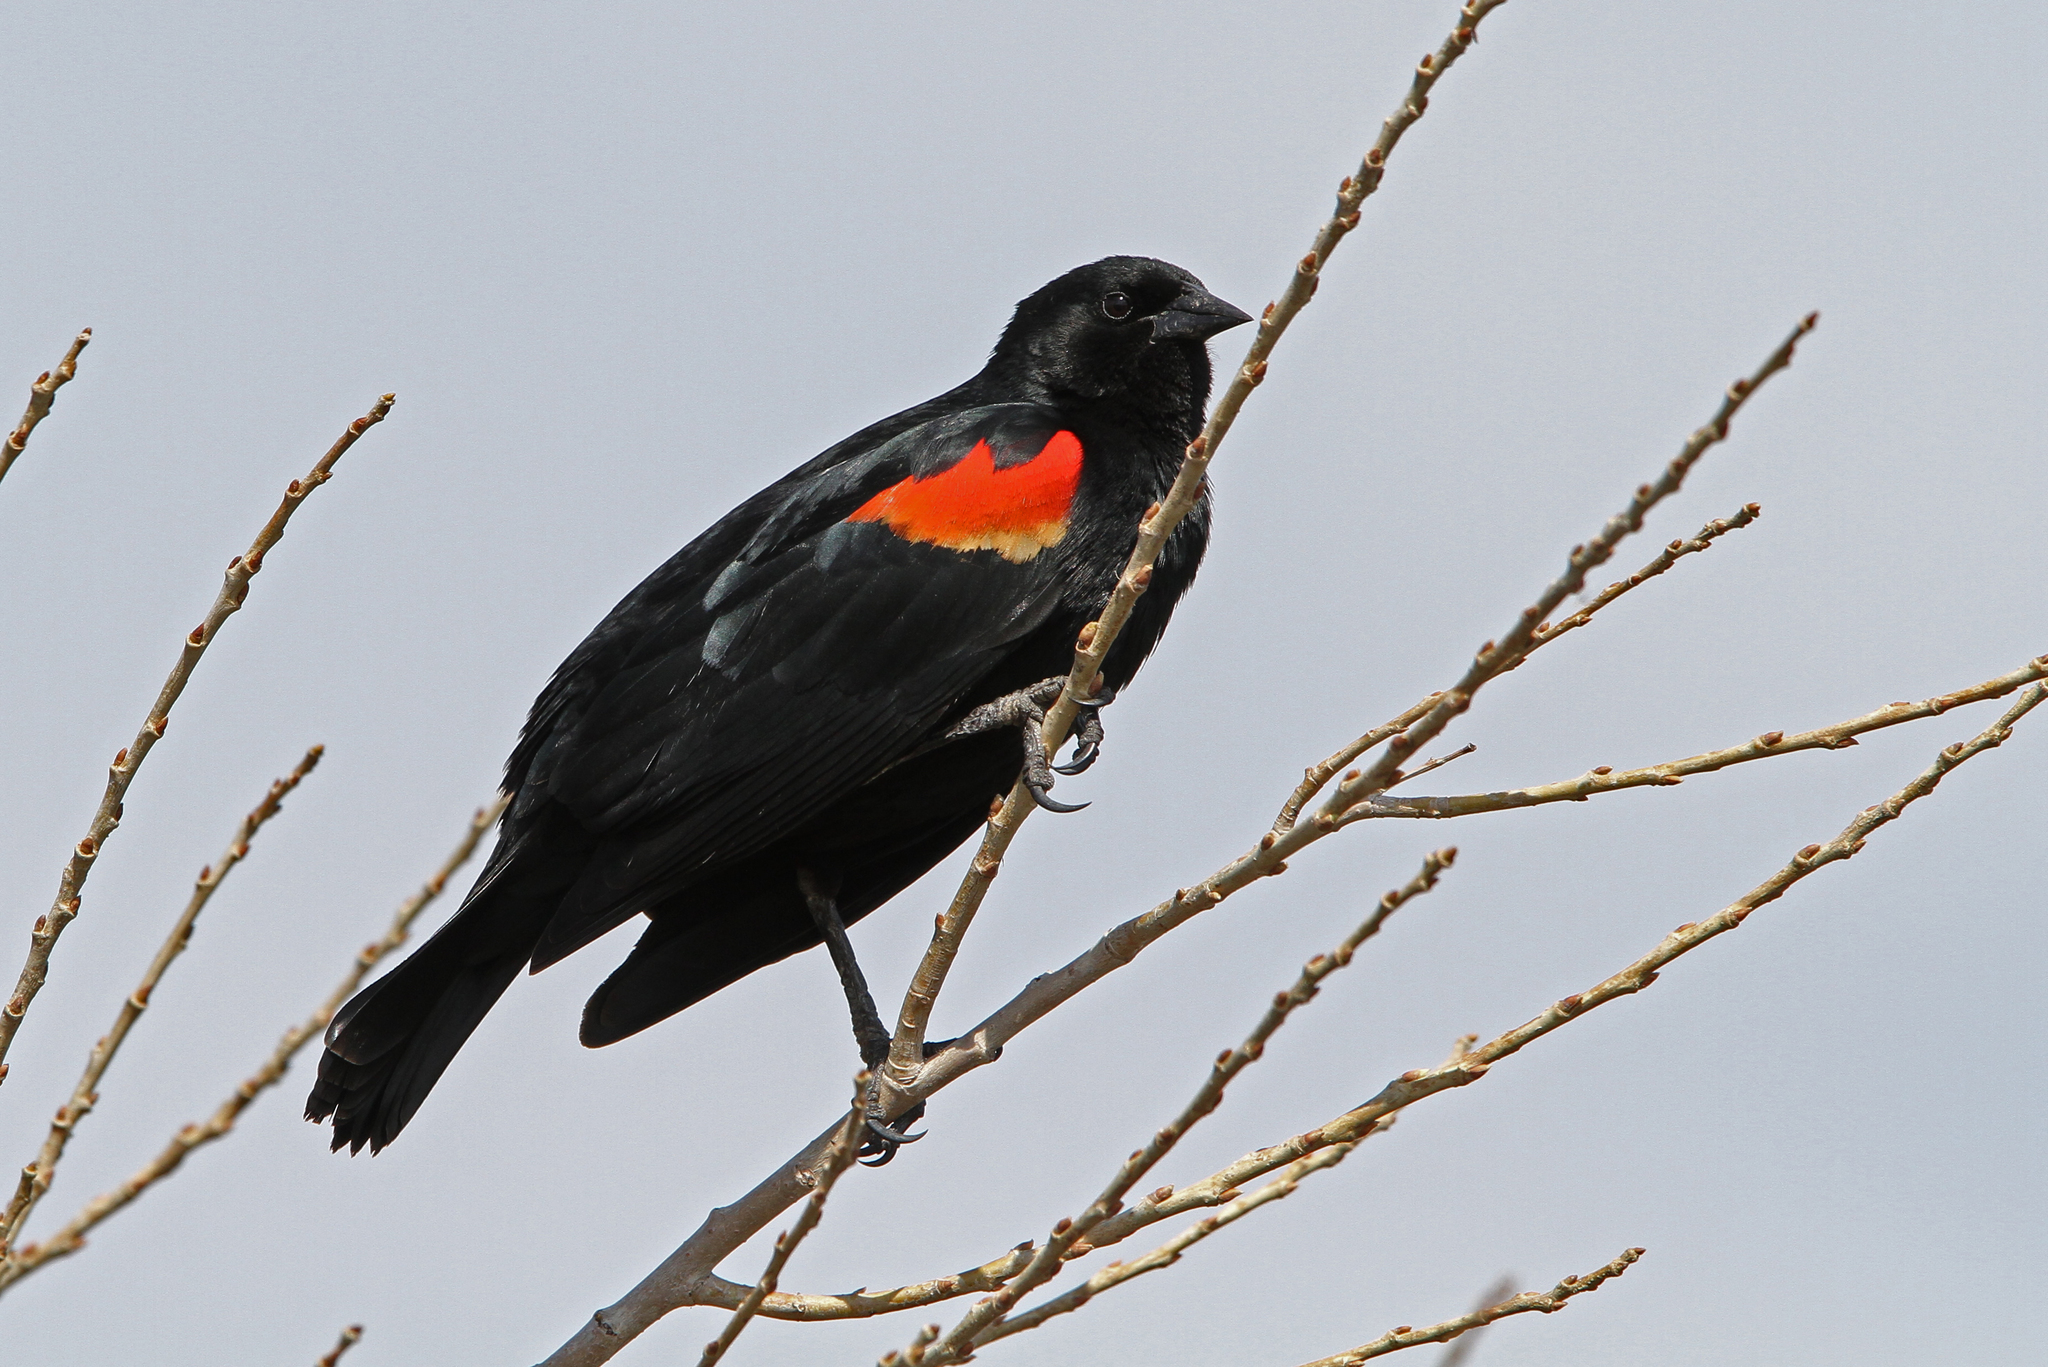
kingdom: Animalia
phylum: Chordata
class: Aves
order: Passeriformes
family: Icteridae
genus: Agelaius
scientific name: Agelaius phoeniceus
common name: Red-winged blackbird
